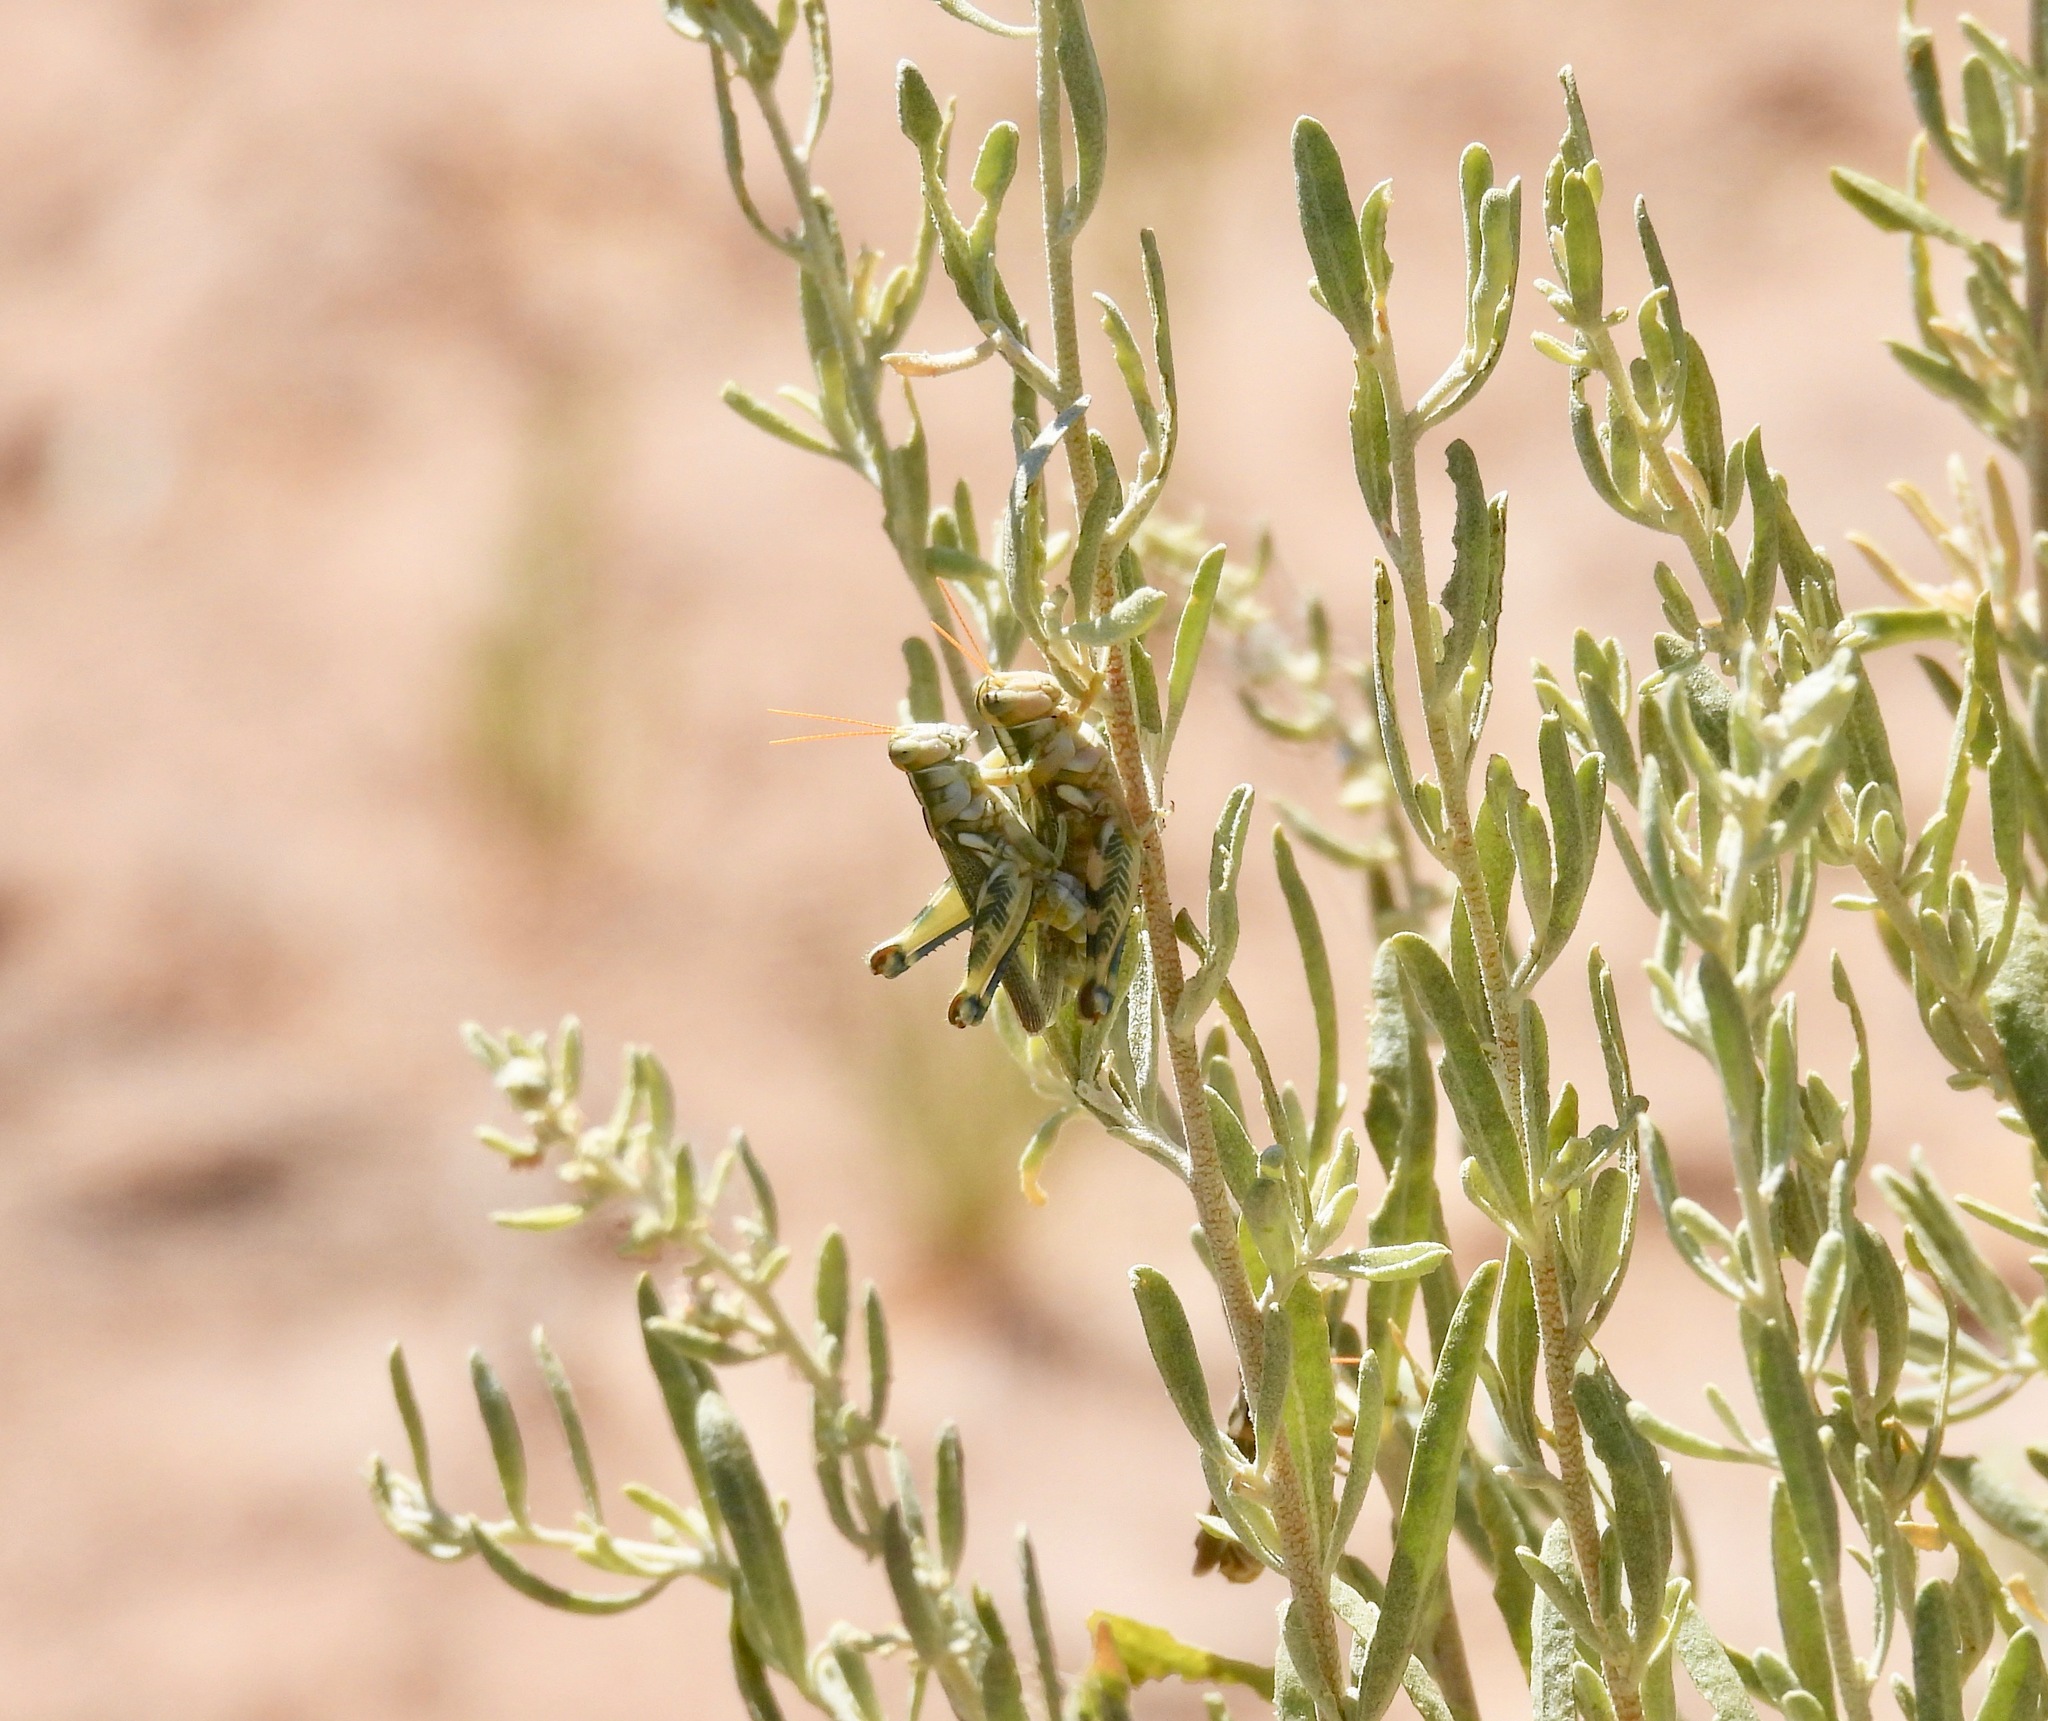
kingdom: Animalia
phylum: Arthropoda
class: Insecta
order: Orthoptera
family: Acrididae
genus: Aeoloplides
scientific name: Aeoloplides turnbulli
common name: Russianthistle grasshopper
